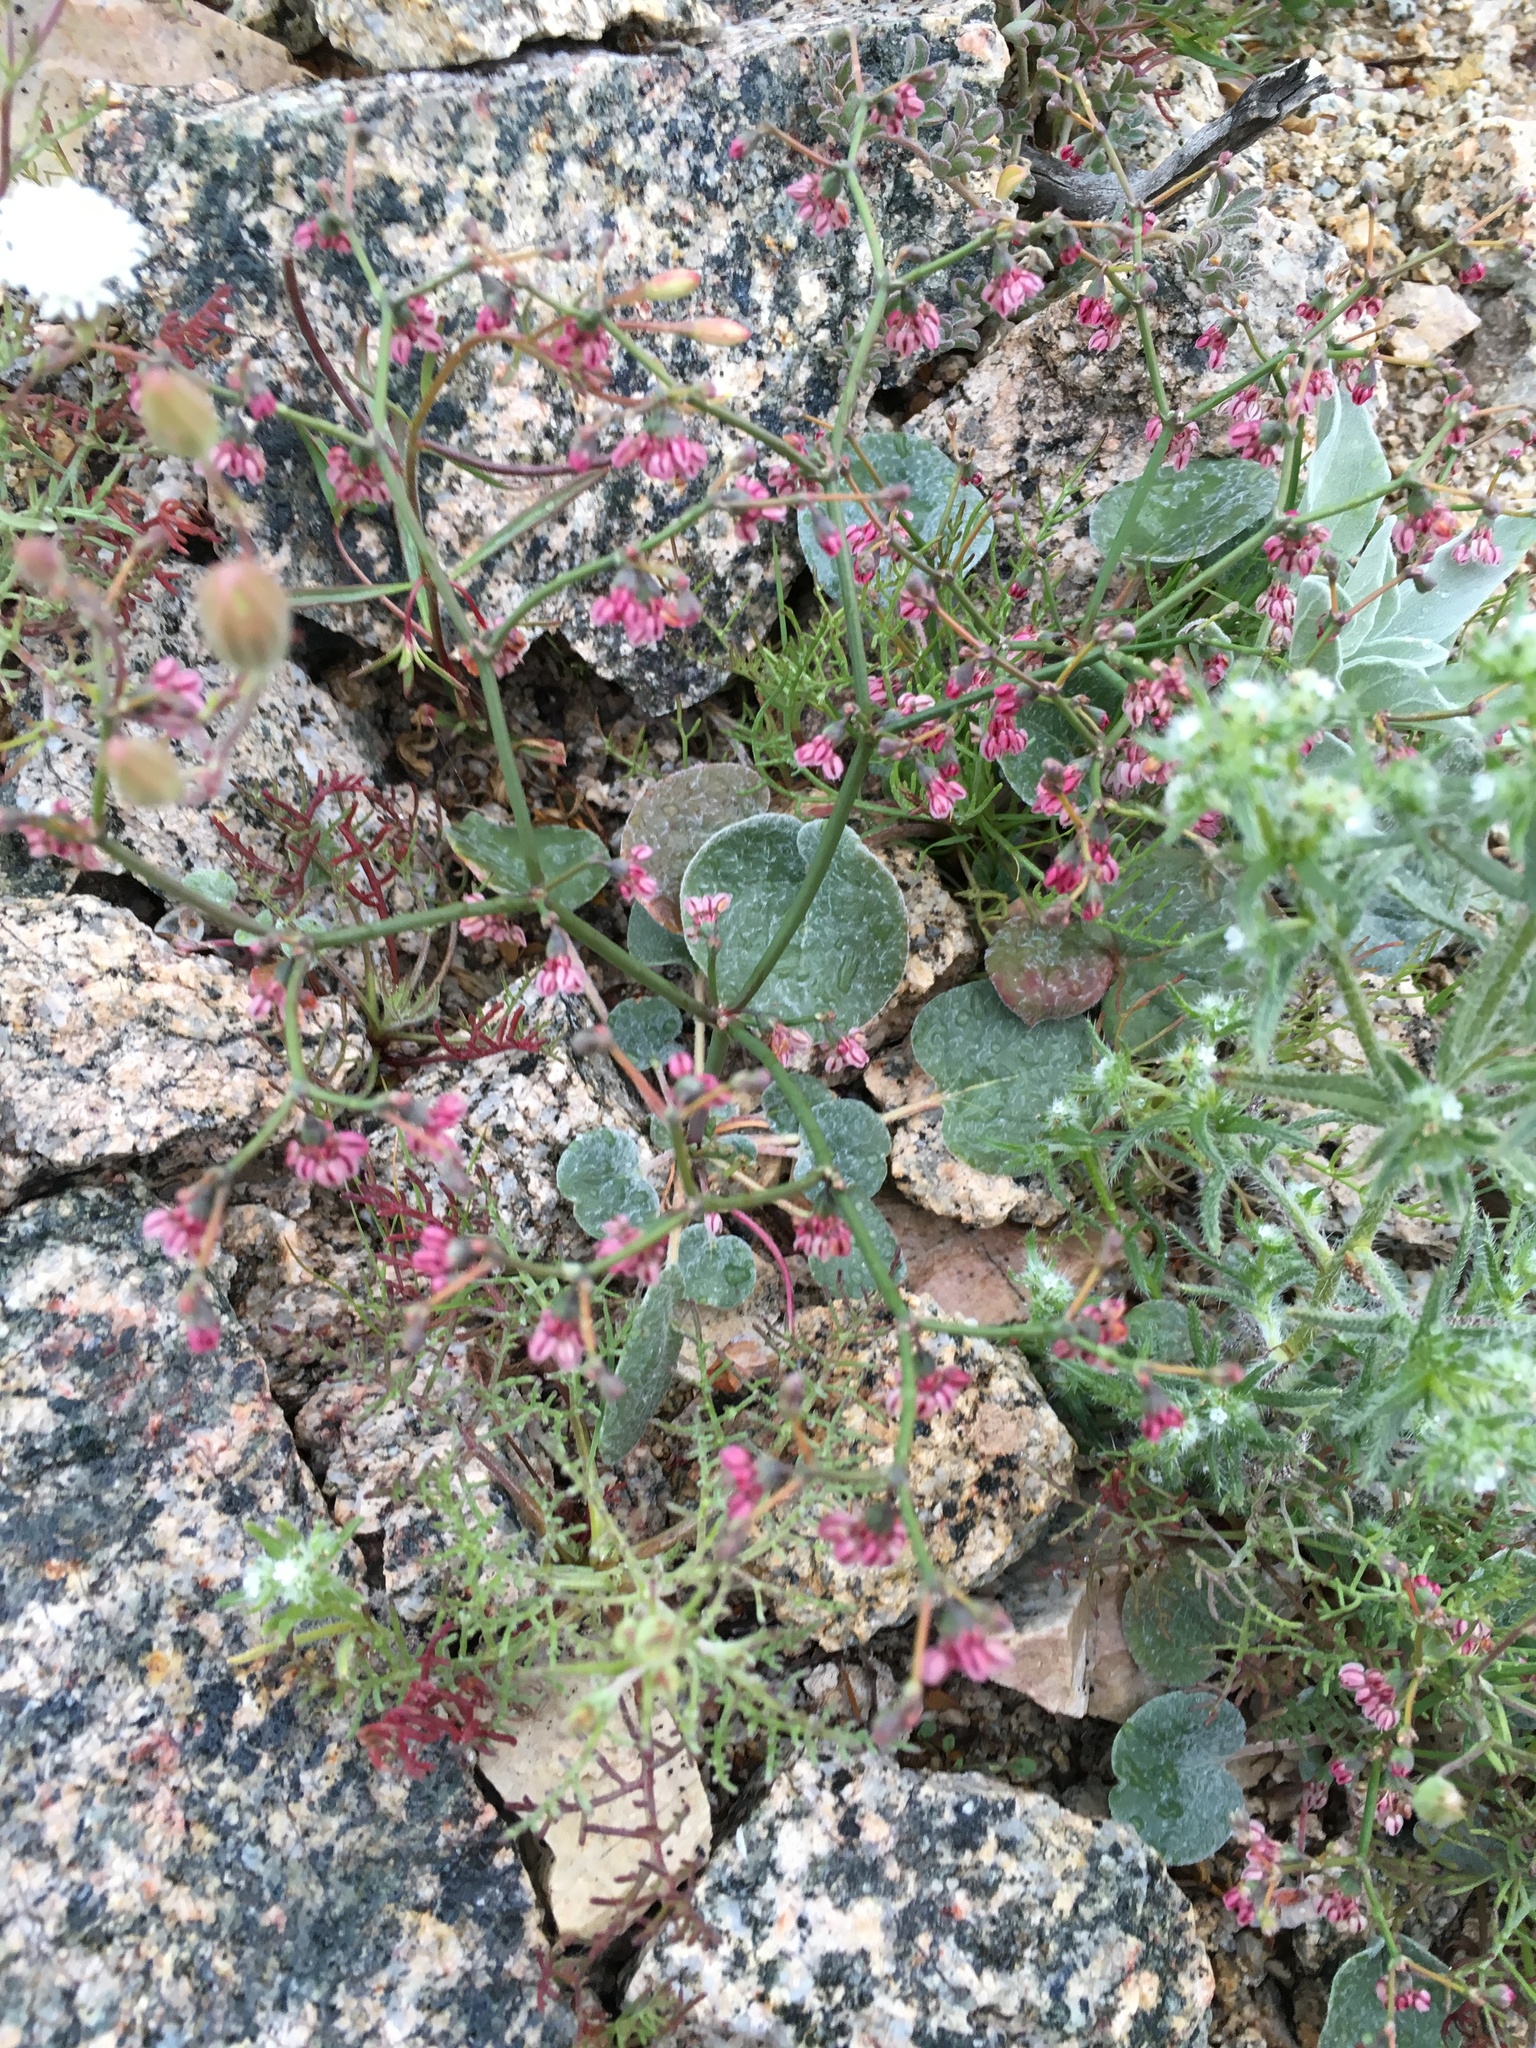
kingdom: Plantae
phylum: Tracheophyta
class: Magnoliopsida
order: Caryophyllales
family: Polygonaceae
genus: Eriogonum
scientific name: Eriogonum deflexum
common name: Skeleton-weed
